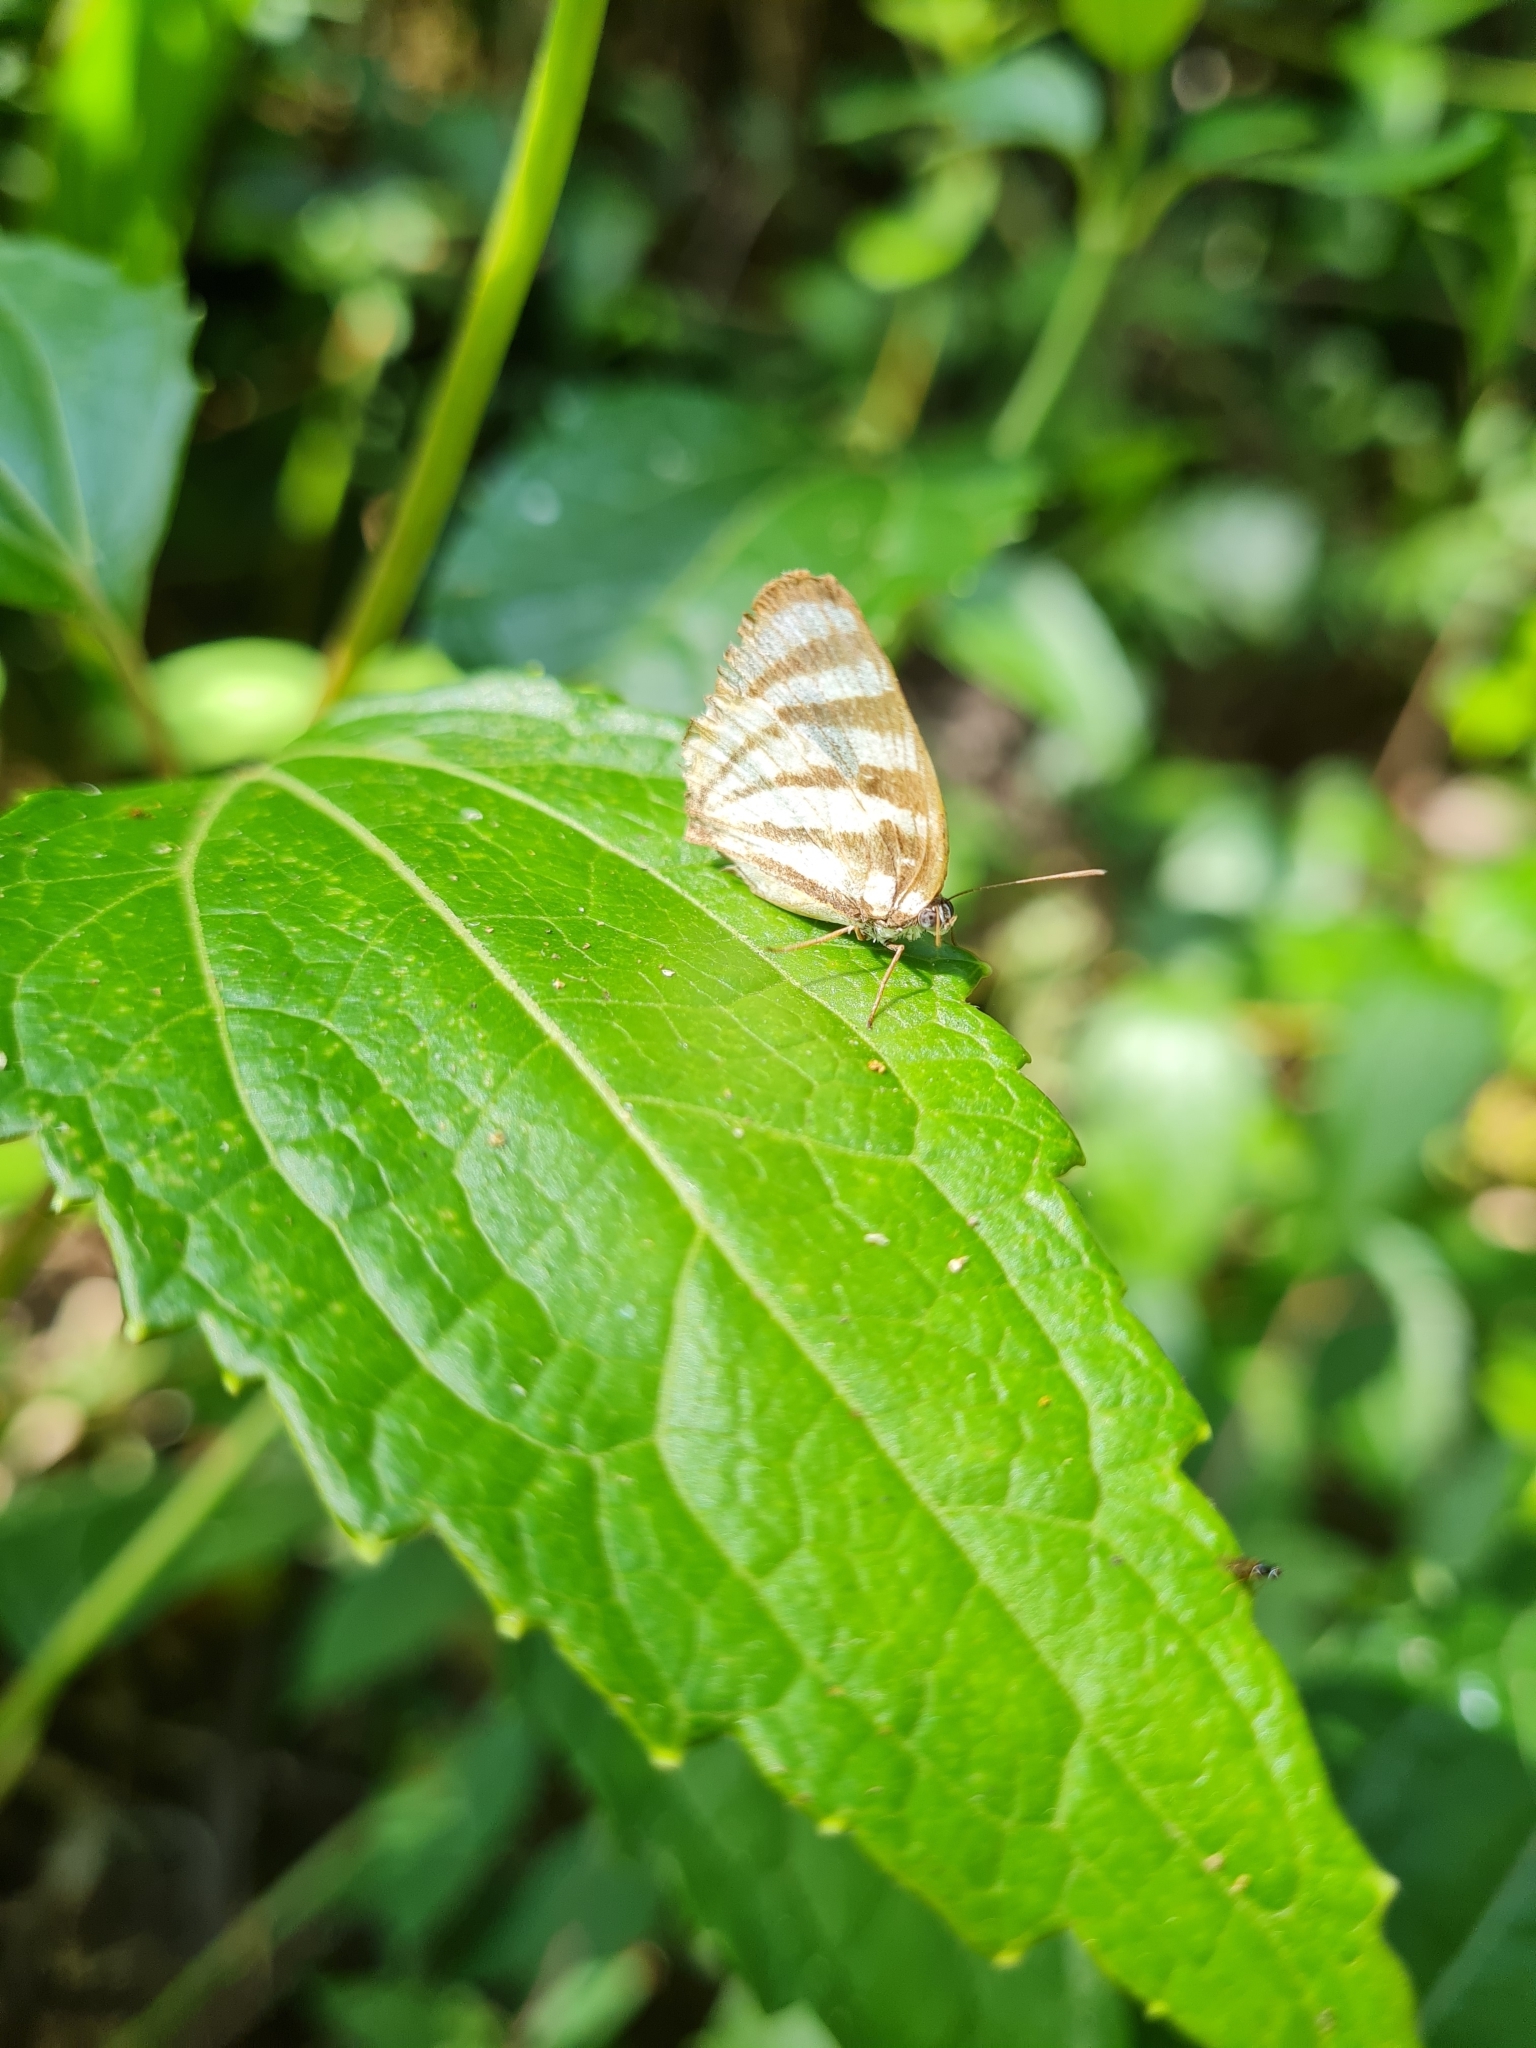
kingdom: Animalia
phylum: Arthropoda
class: Insecta
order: Lepidoptera
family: Lycaenidae
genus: Arawacus
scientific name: Arawacus lincoides
